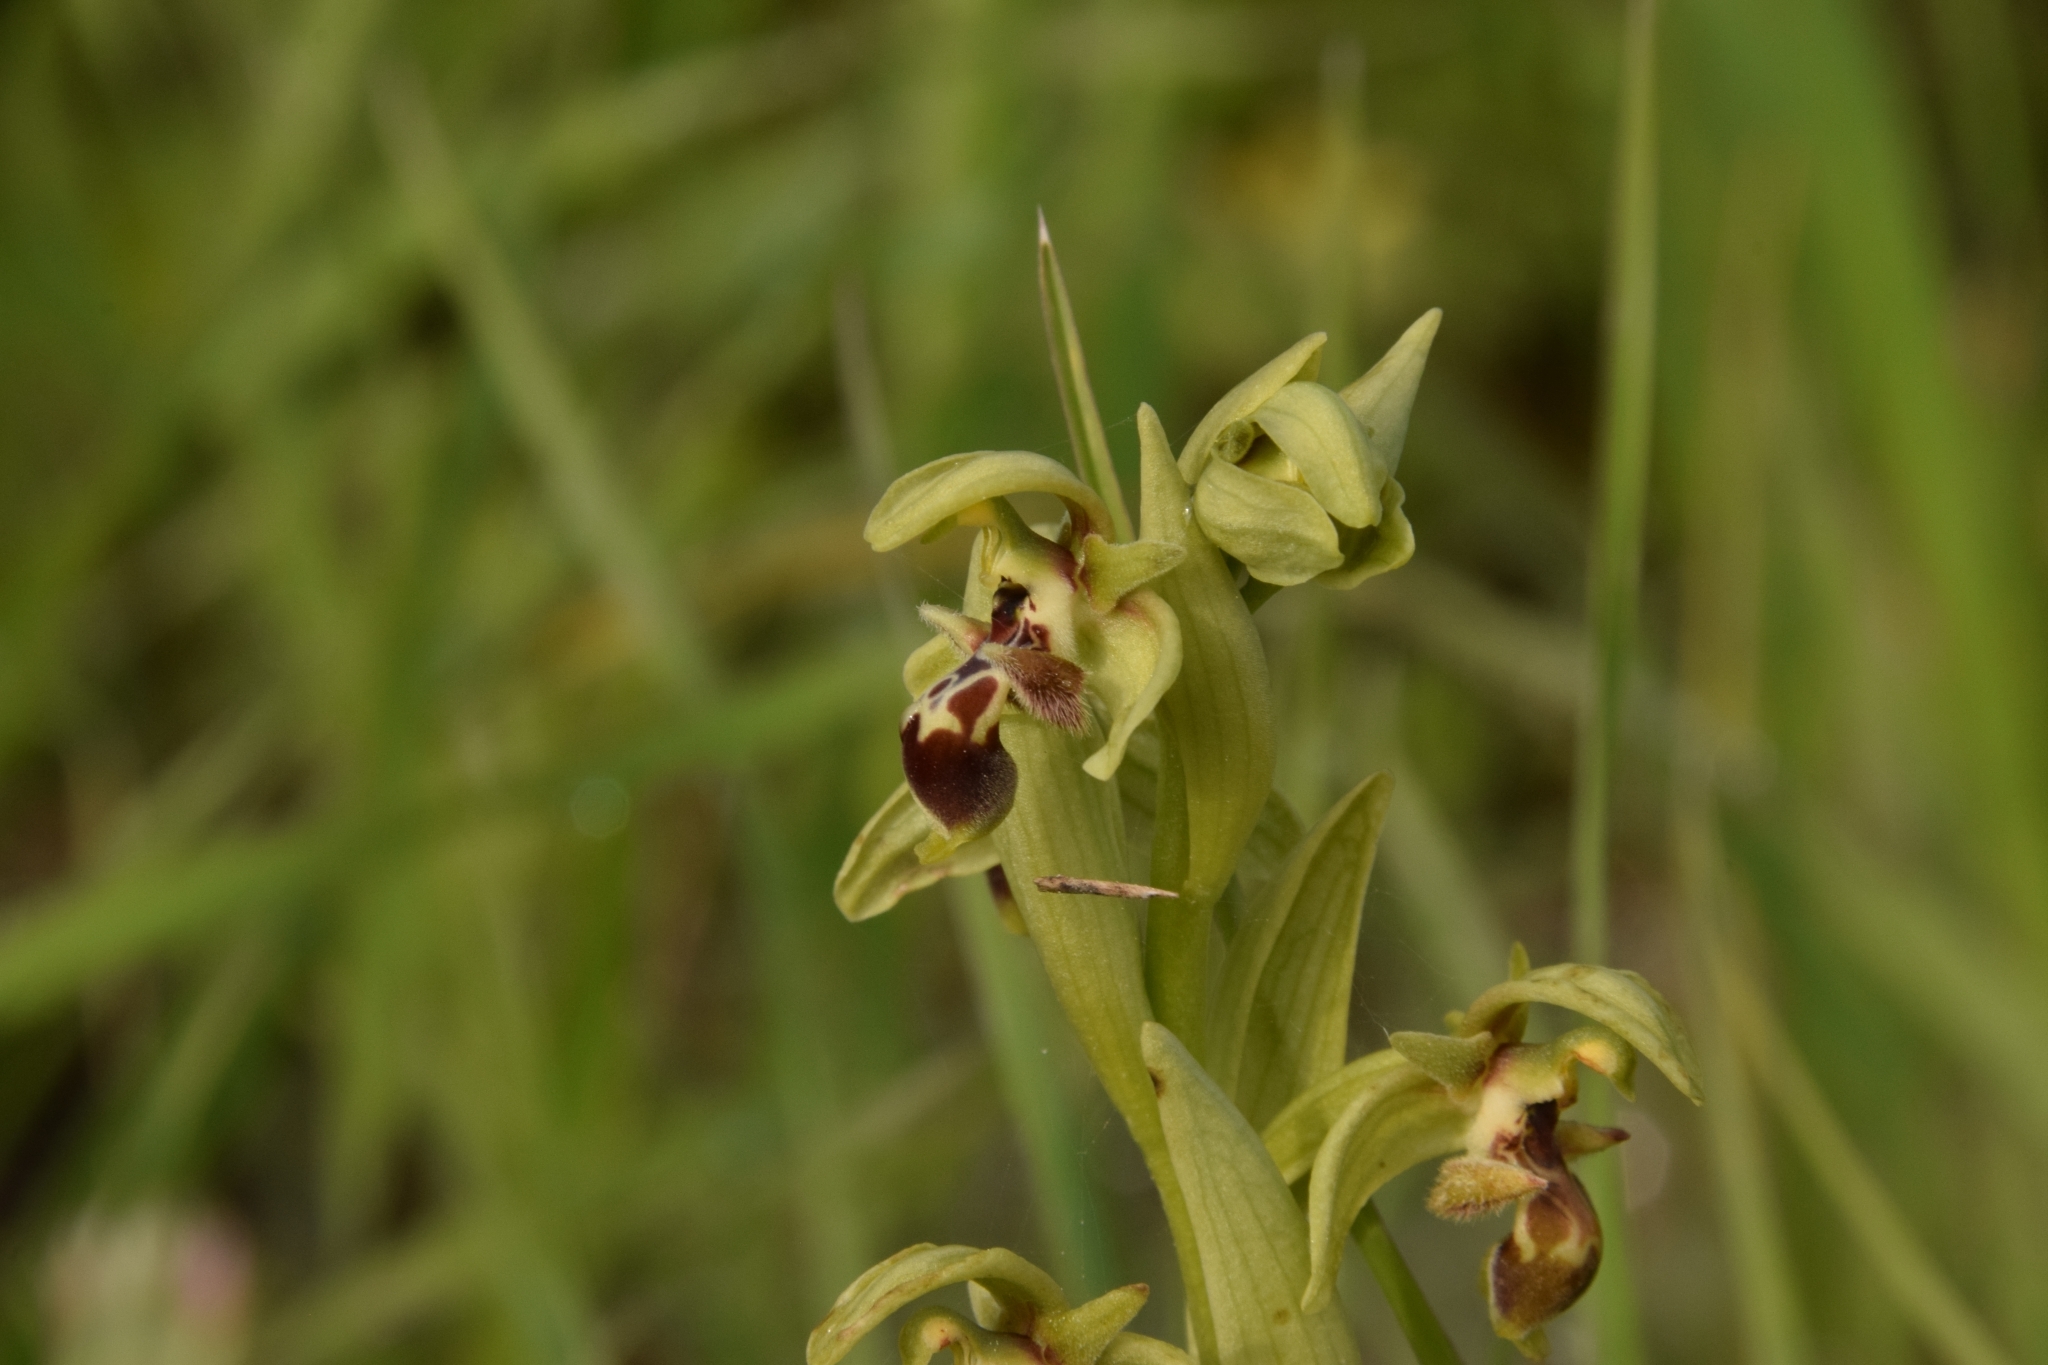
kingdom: Plantae
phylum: Tracheophyta
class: Liliopsida
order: Asparagales
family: Orchidaceae
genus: Ophrys
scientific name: Ophrys umbilicata
